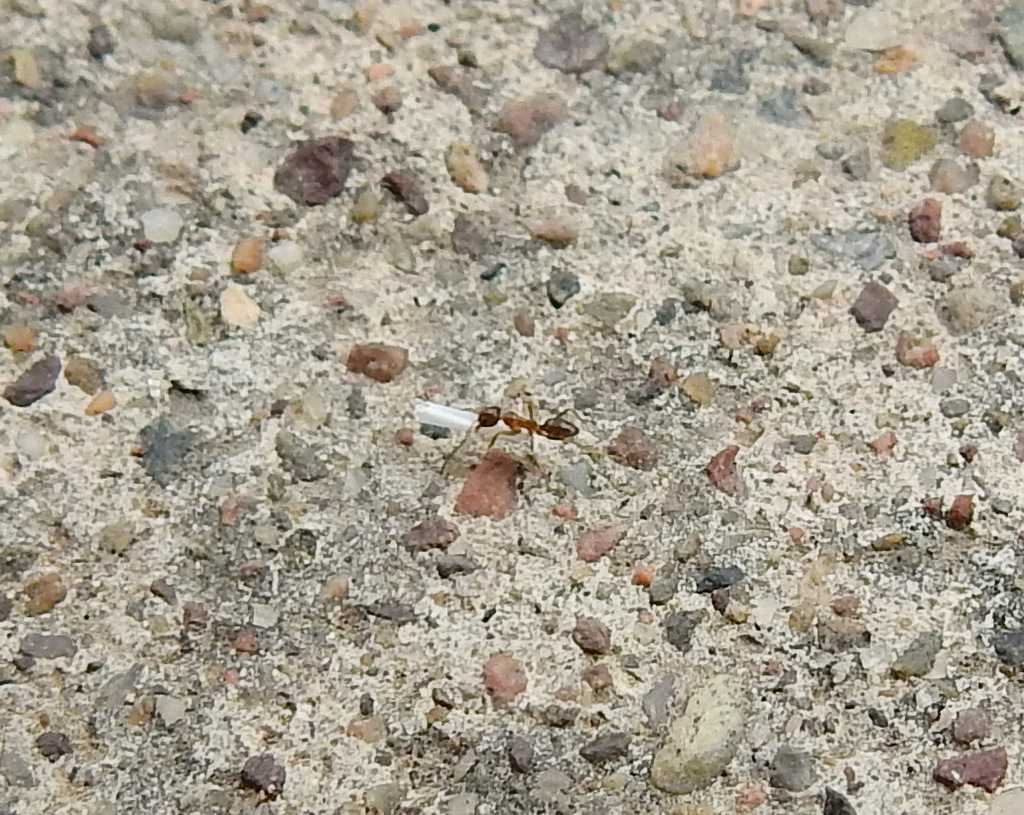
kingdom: Animalia
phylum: Arthropoda
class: Insecta
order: Hymenoptera
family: Formicidae
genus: Linepithema
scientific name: Linepithema humile
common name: Argentine ant
